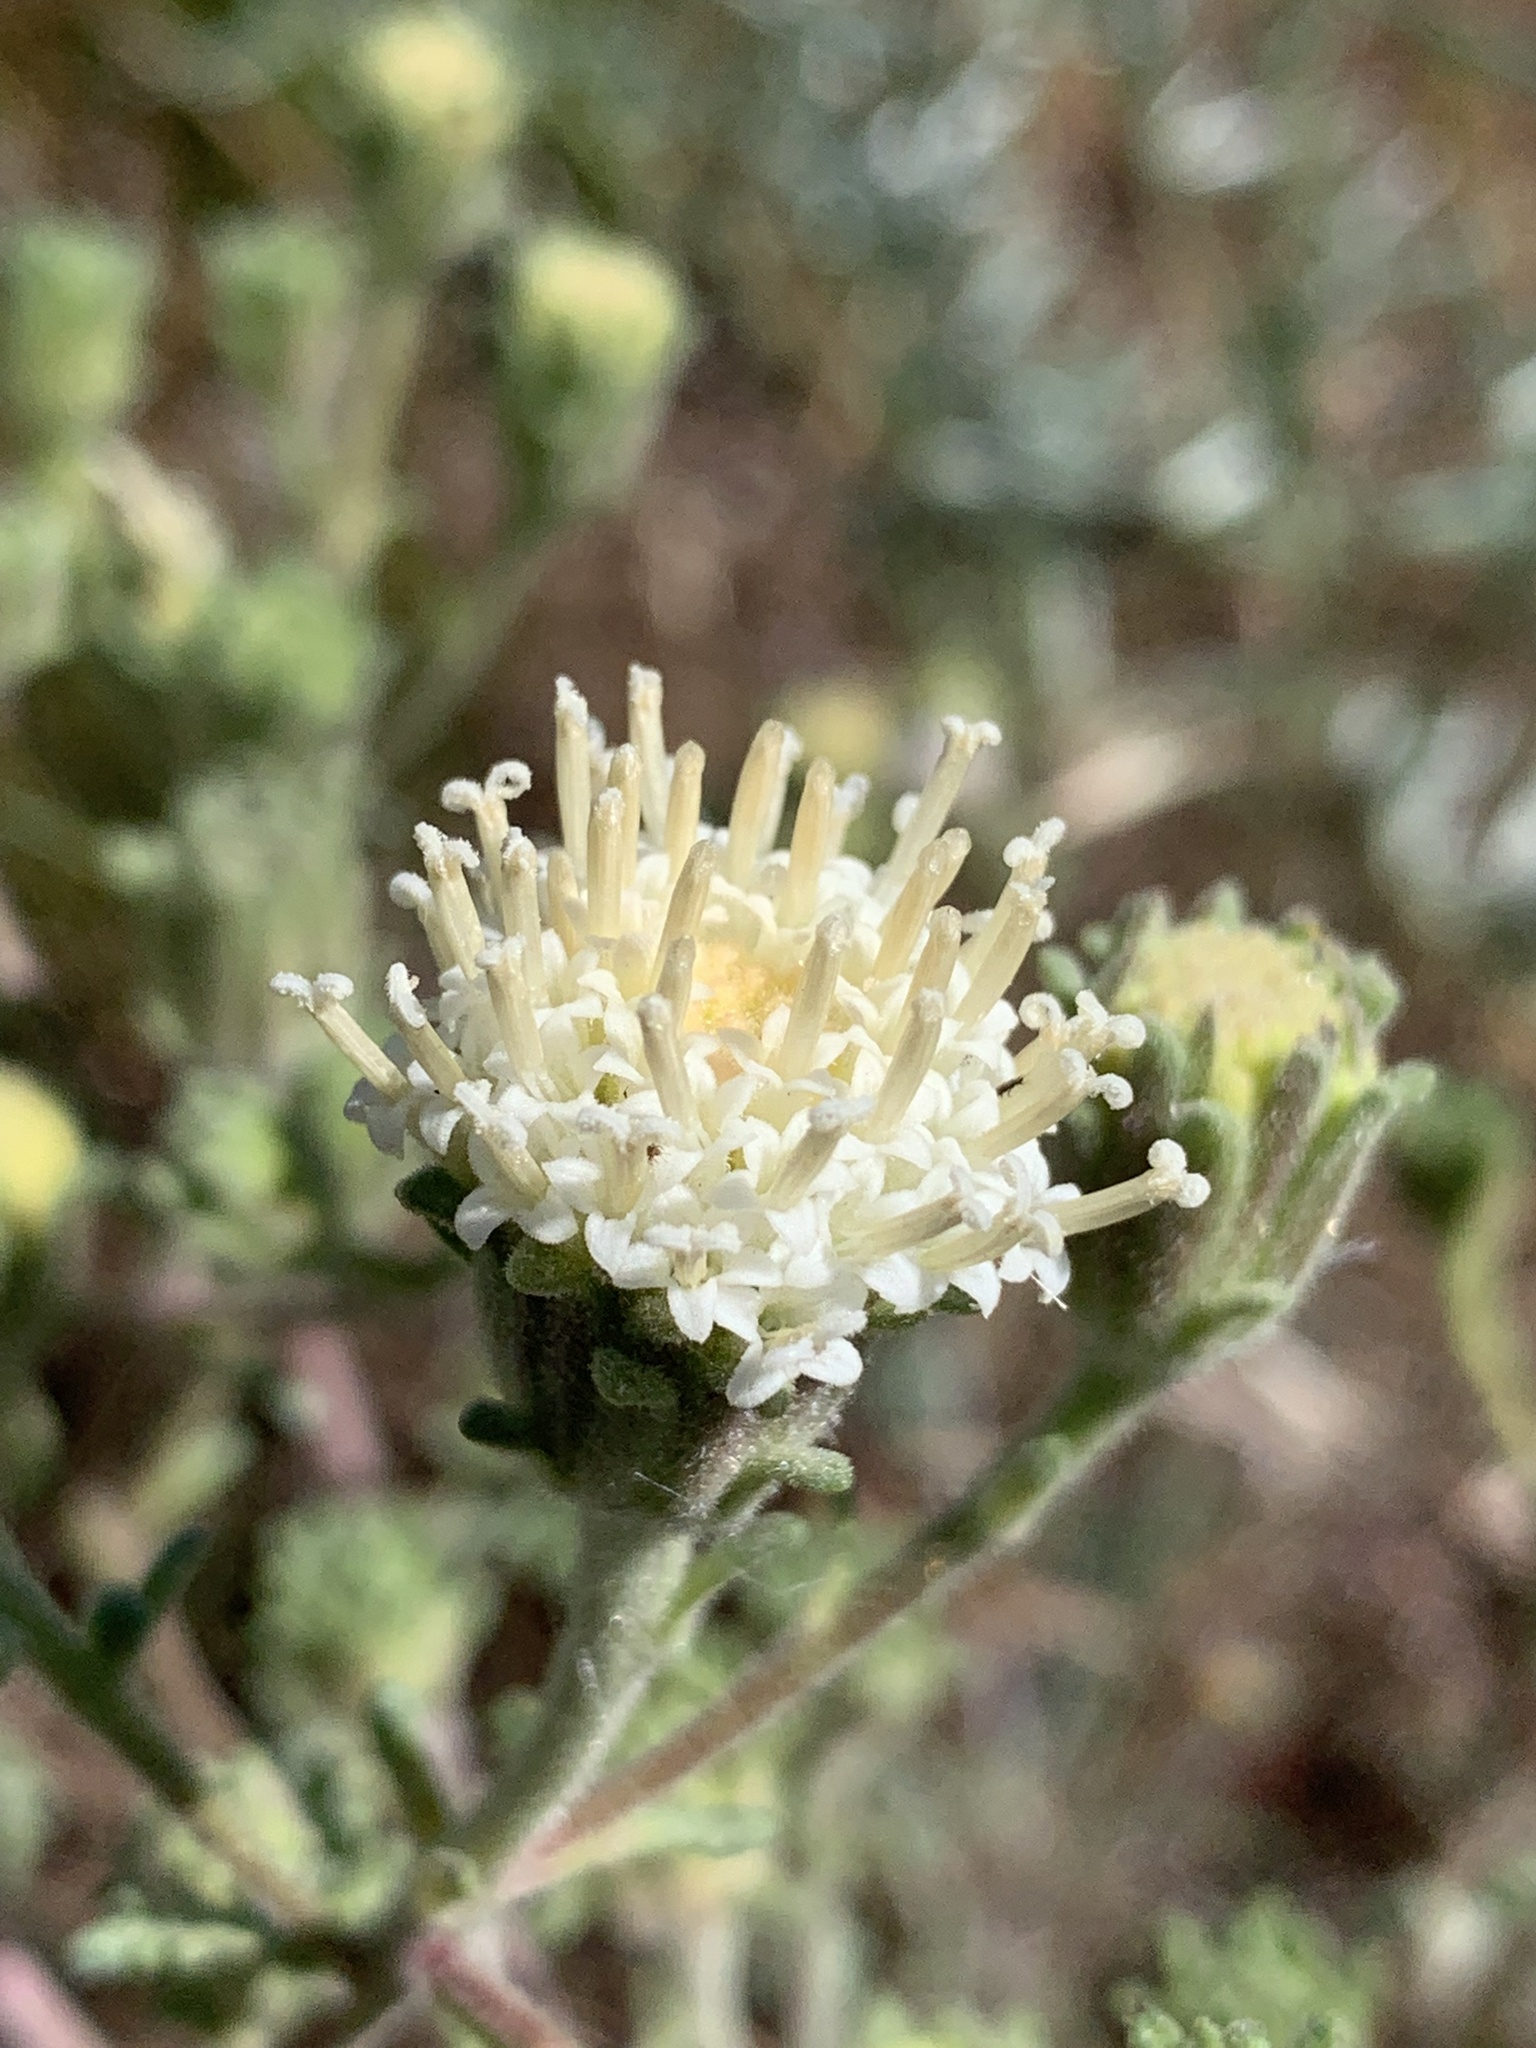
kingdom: Plantae
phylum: Tracheophyta
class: Magnoliopsida
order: Asterales
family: Asteraceae
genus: Chaenactis
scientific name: Chaenactis douglasii
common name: Hoary pincushion
